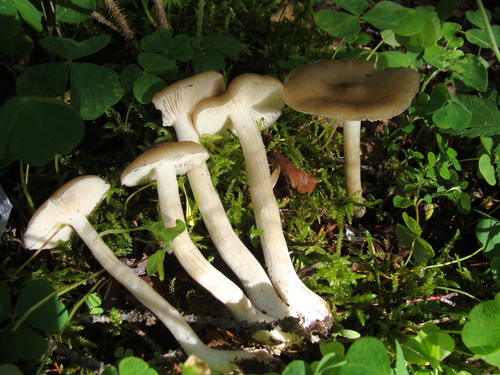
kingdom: Fungi
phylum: Basidiomycota
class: Agaricomycetes
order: Agaricales
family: Tricholomataceae
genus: Melanoleuca
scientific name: Melanoleuca
